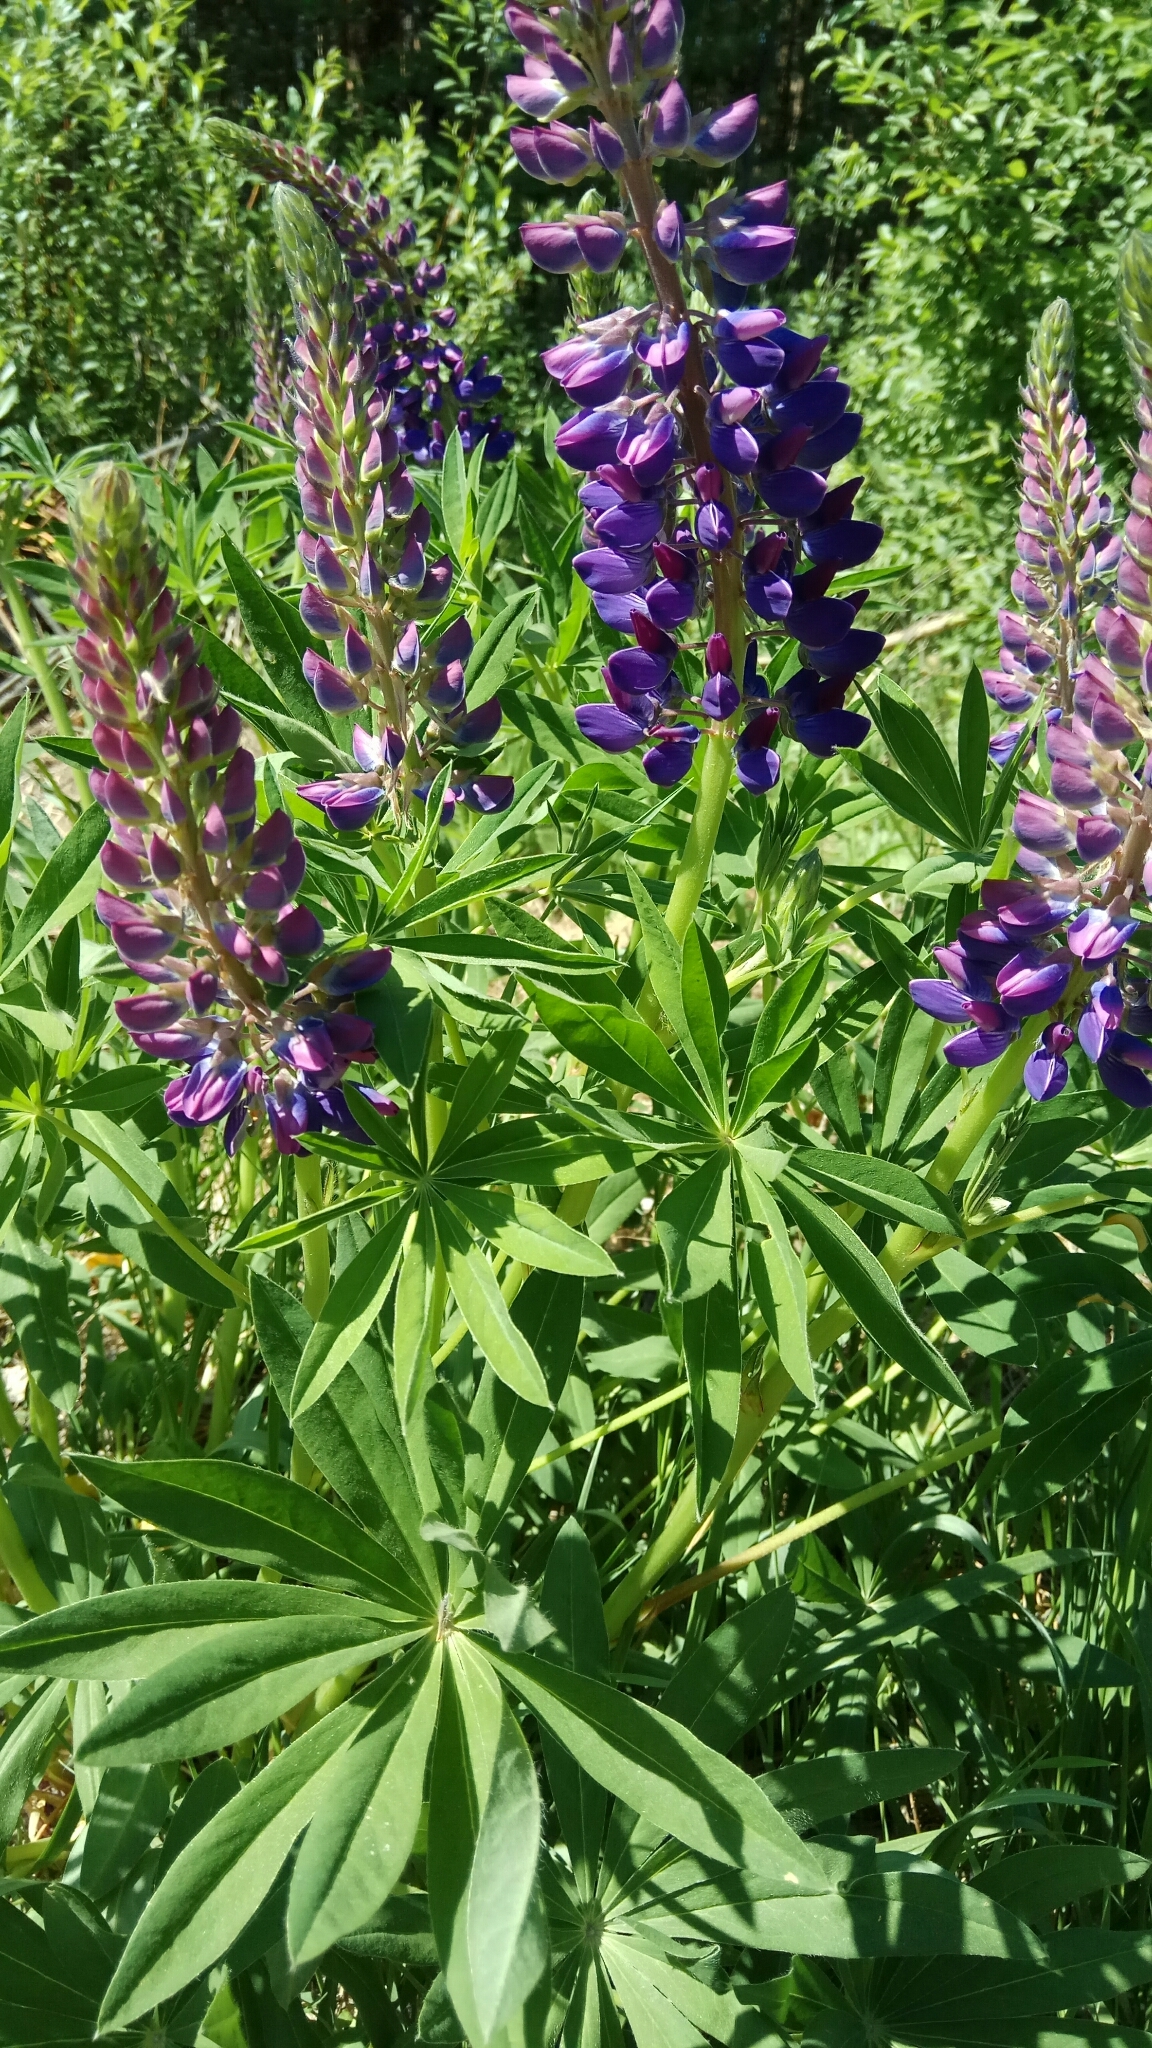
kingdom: Plantae
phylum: Tracheophyta
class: Magnoliopsida
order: Fabales
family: Fabaceae
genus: Lupinus
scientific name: Lupinus polyphyllus
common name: Garden lupin
